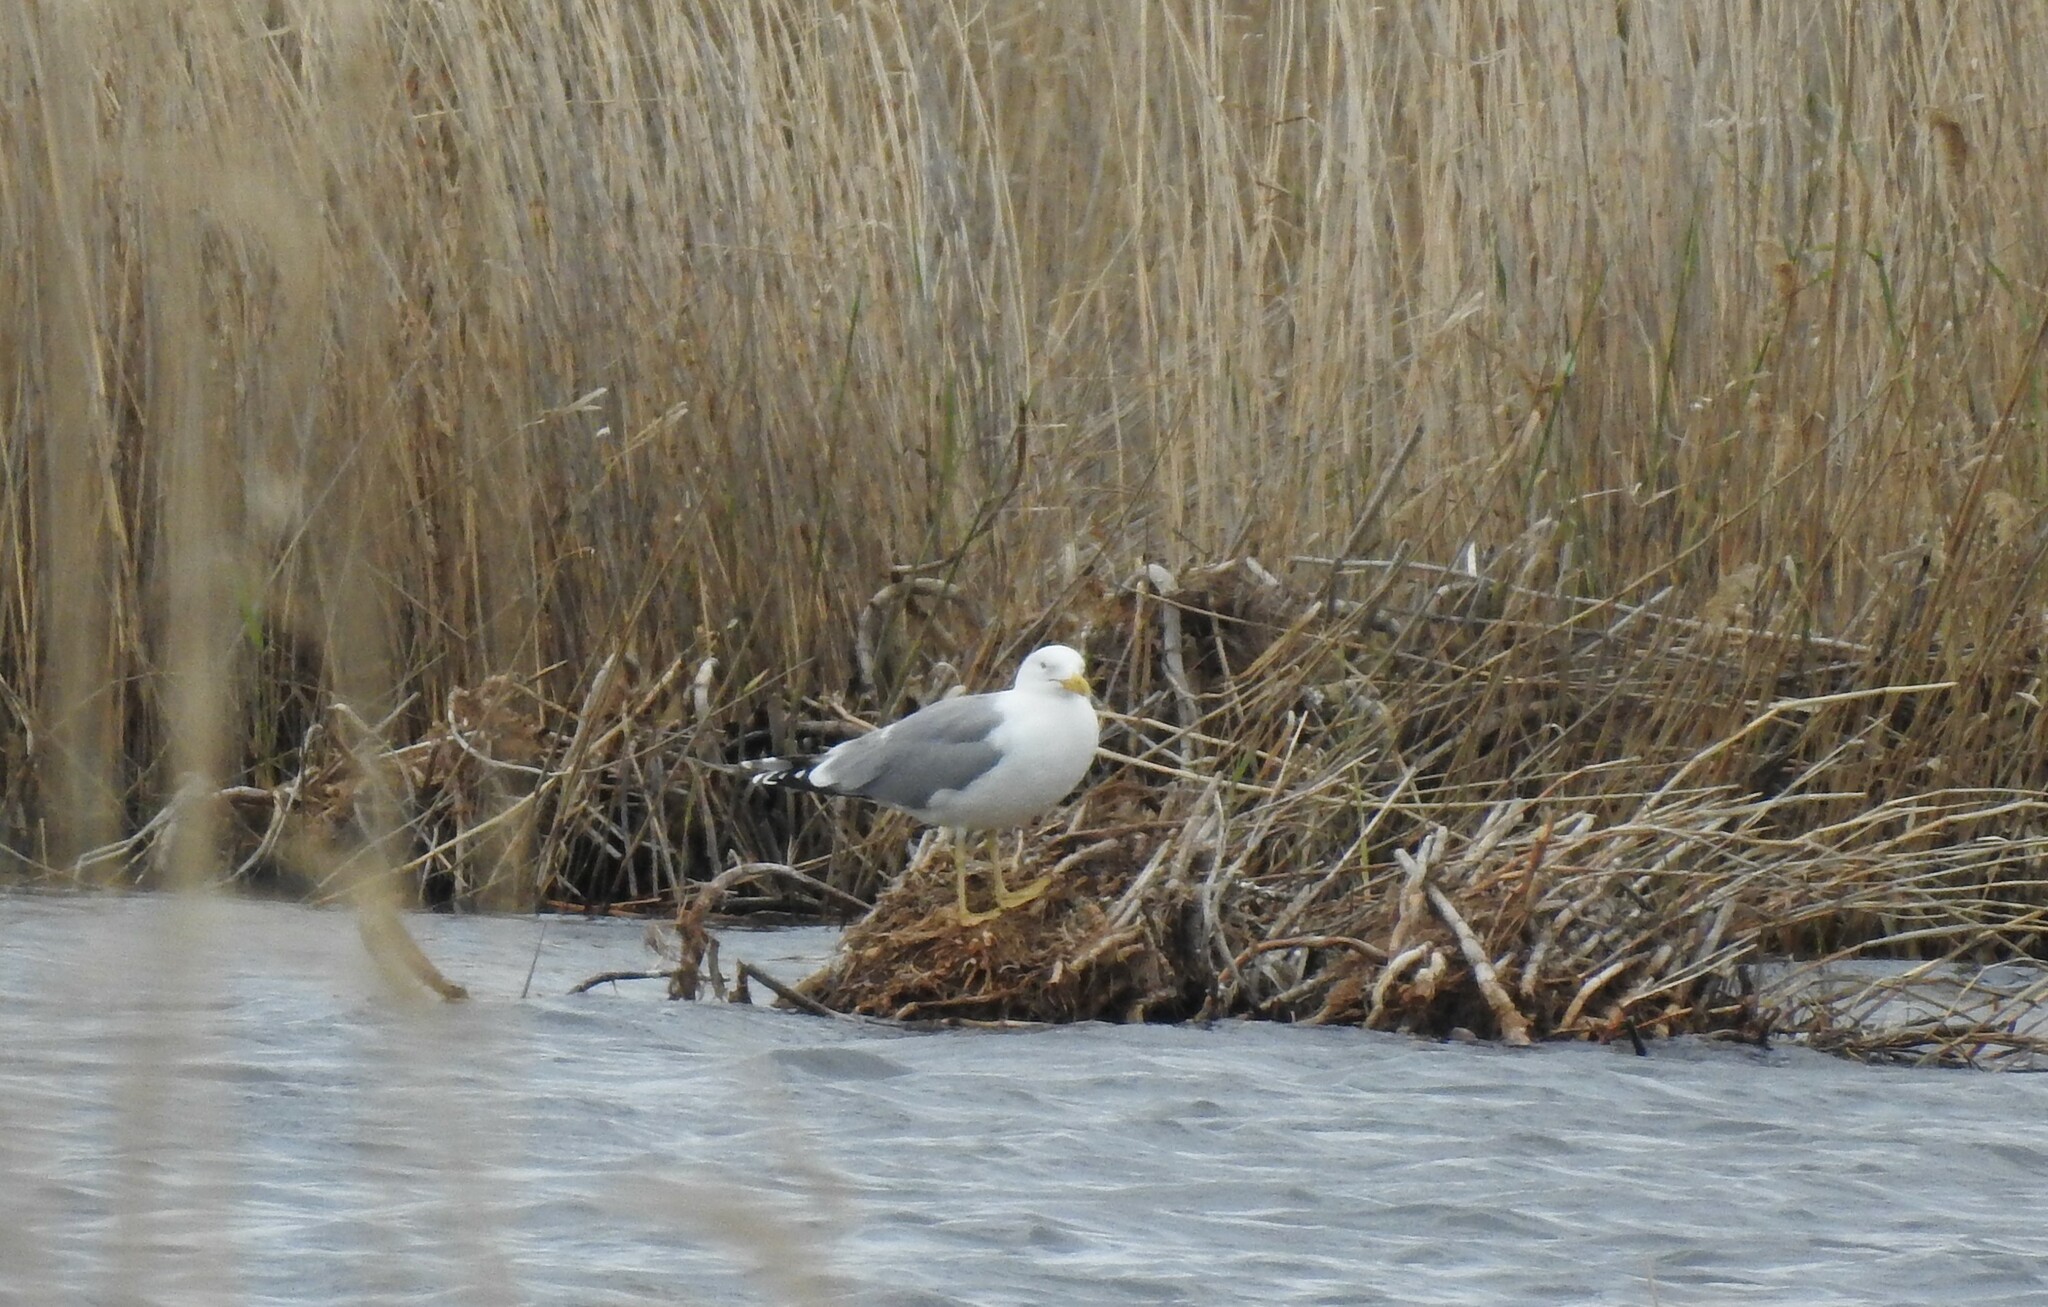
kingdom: Animalia
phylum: Chordata
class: Aves
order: Charadriiformes
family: Laridae
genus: Larus
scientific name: Larus cachinnans
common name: Caspian gull
